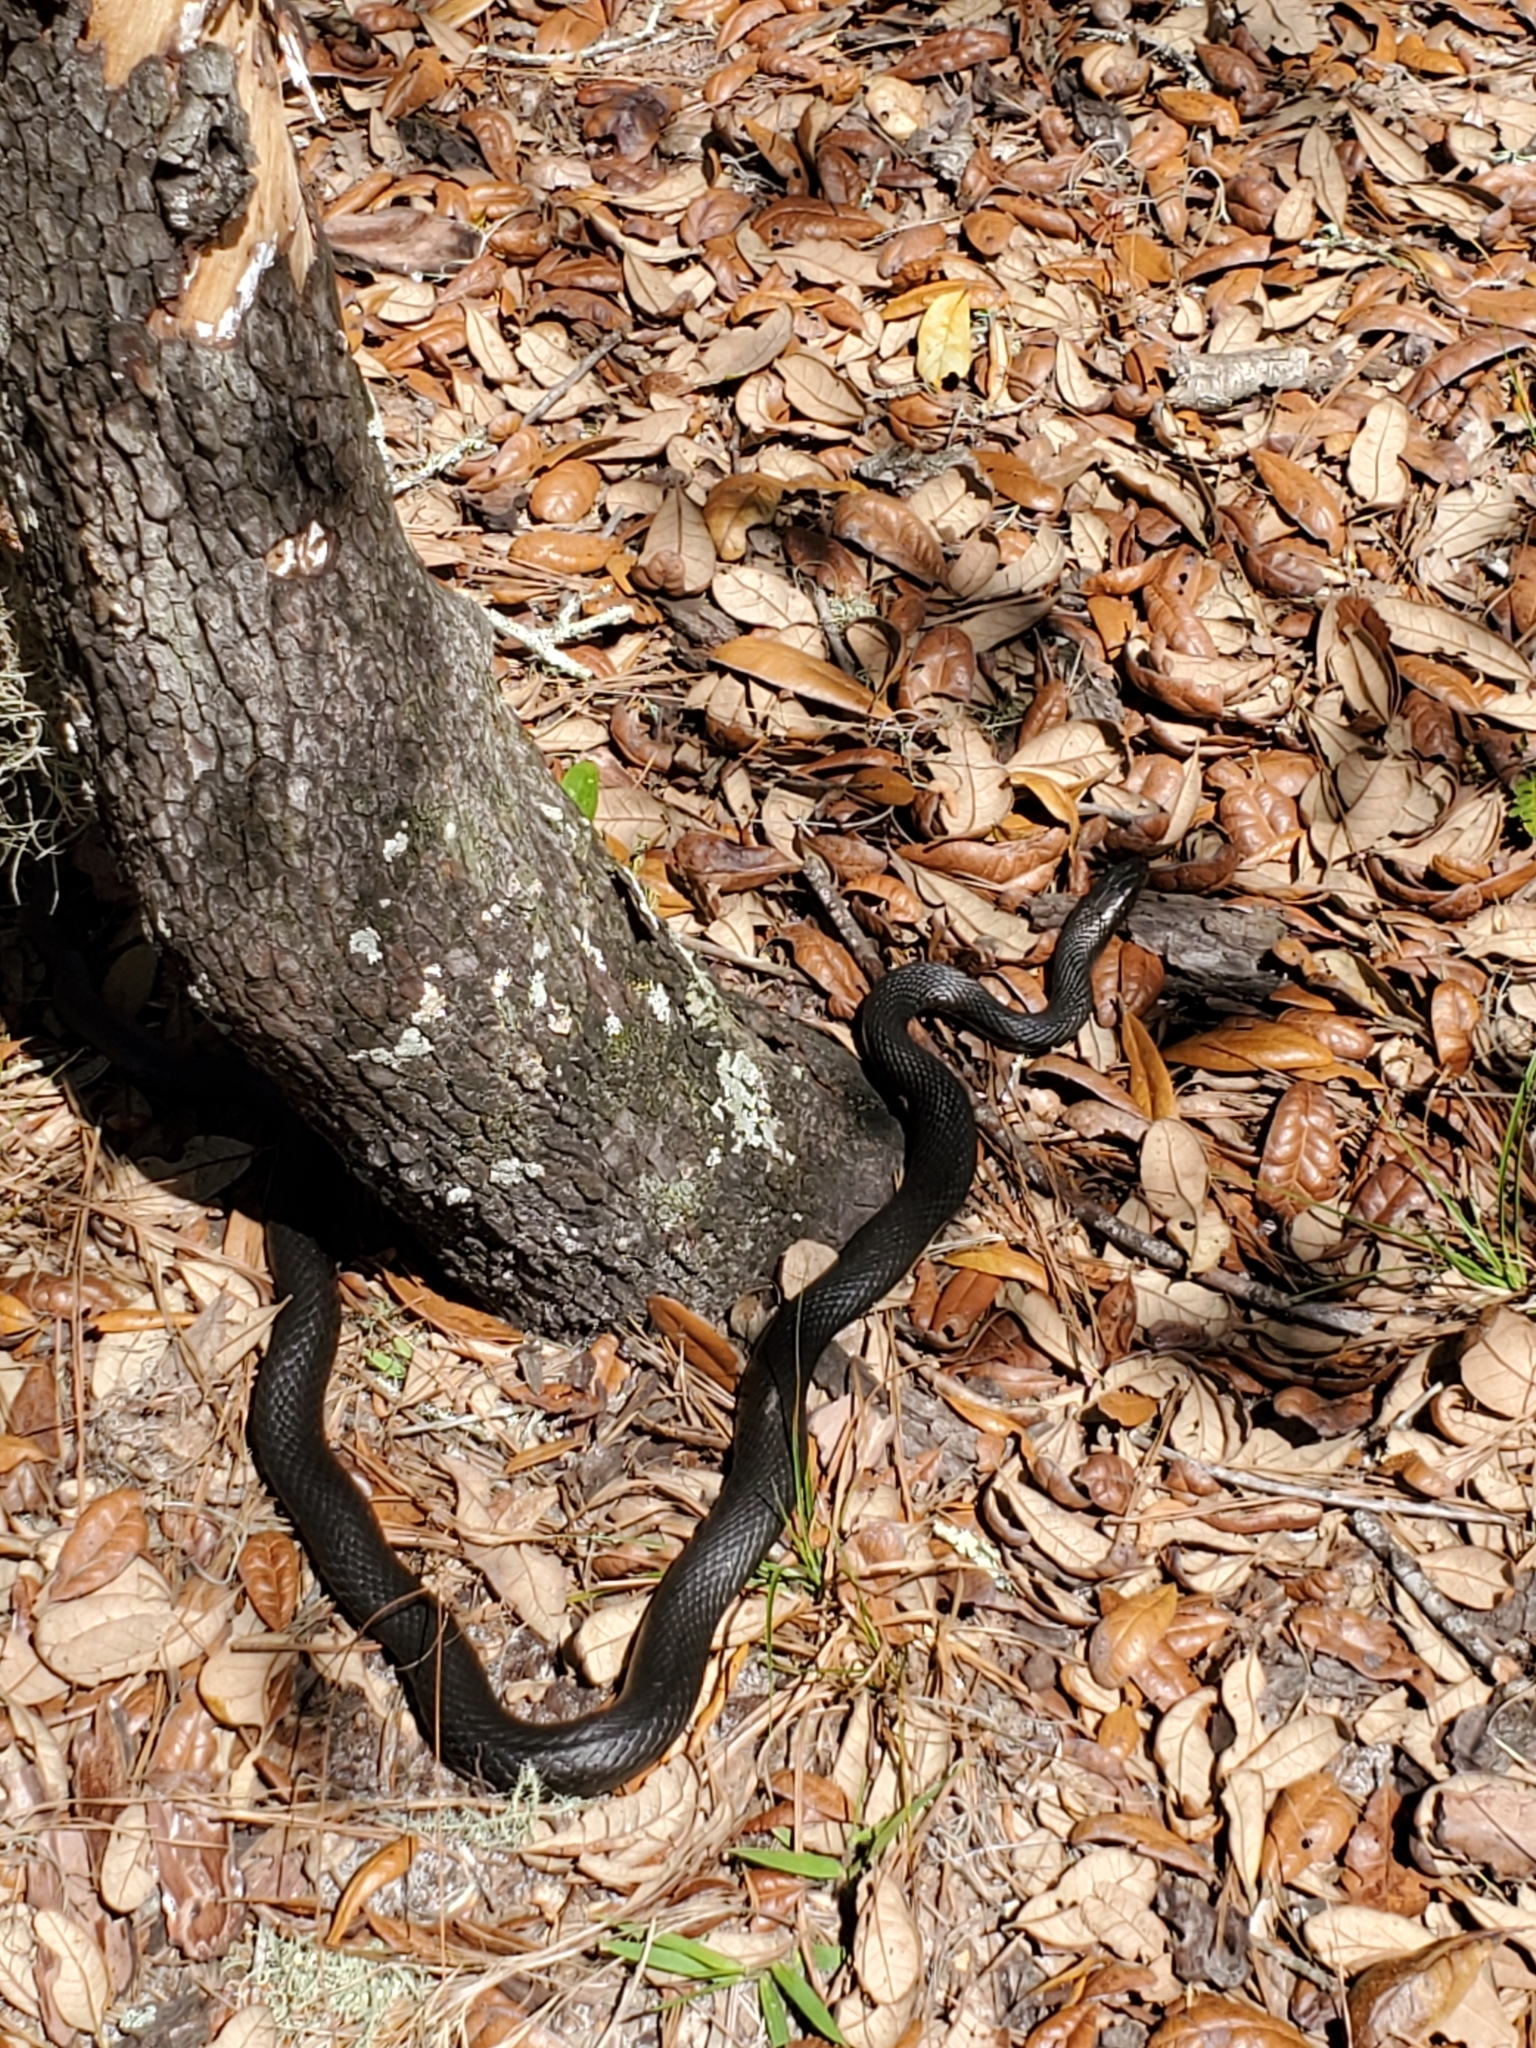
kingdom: Animalia
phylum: Chordata
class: Squamata
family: Colubridae
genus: Coluber
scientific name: Coluber constrictor
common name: Eastern racer
